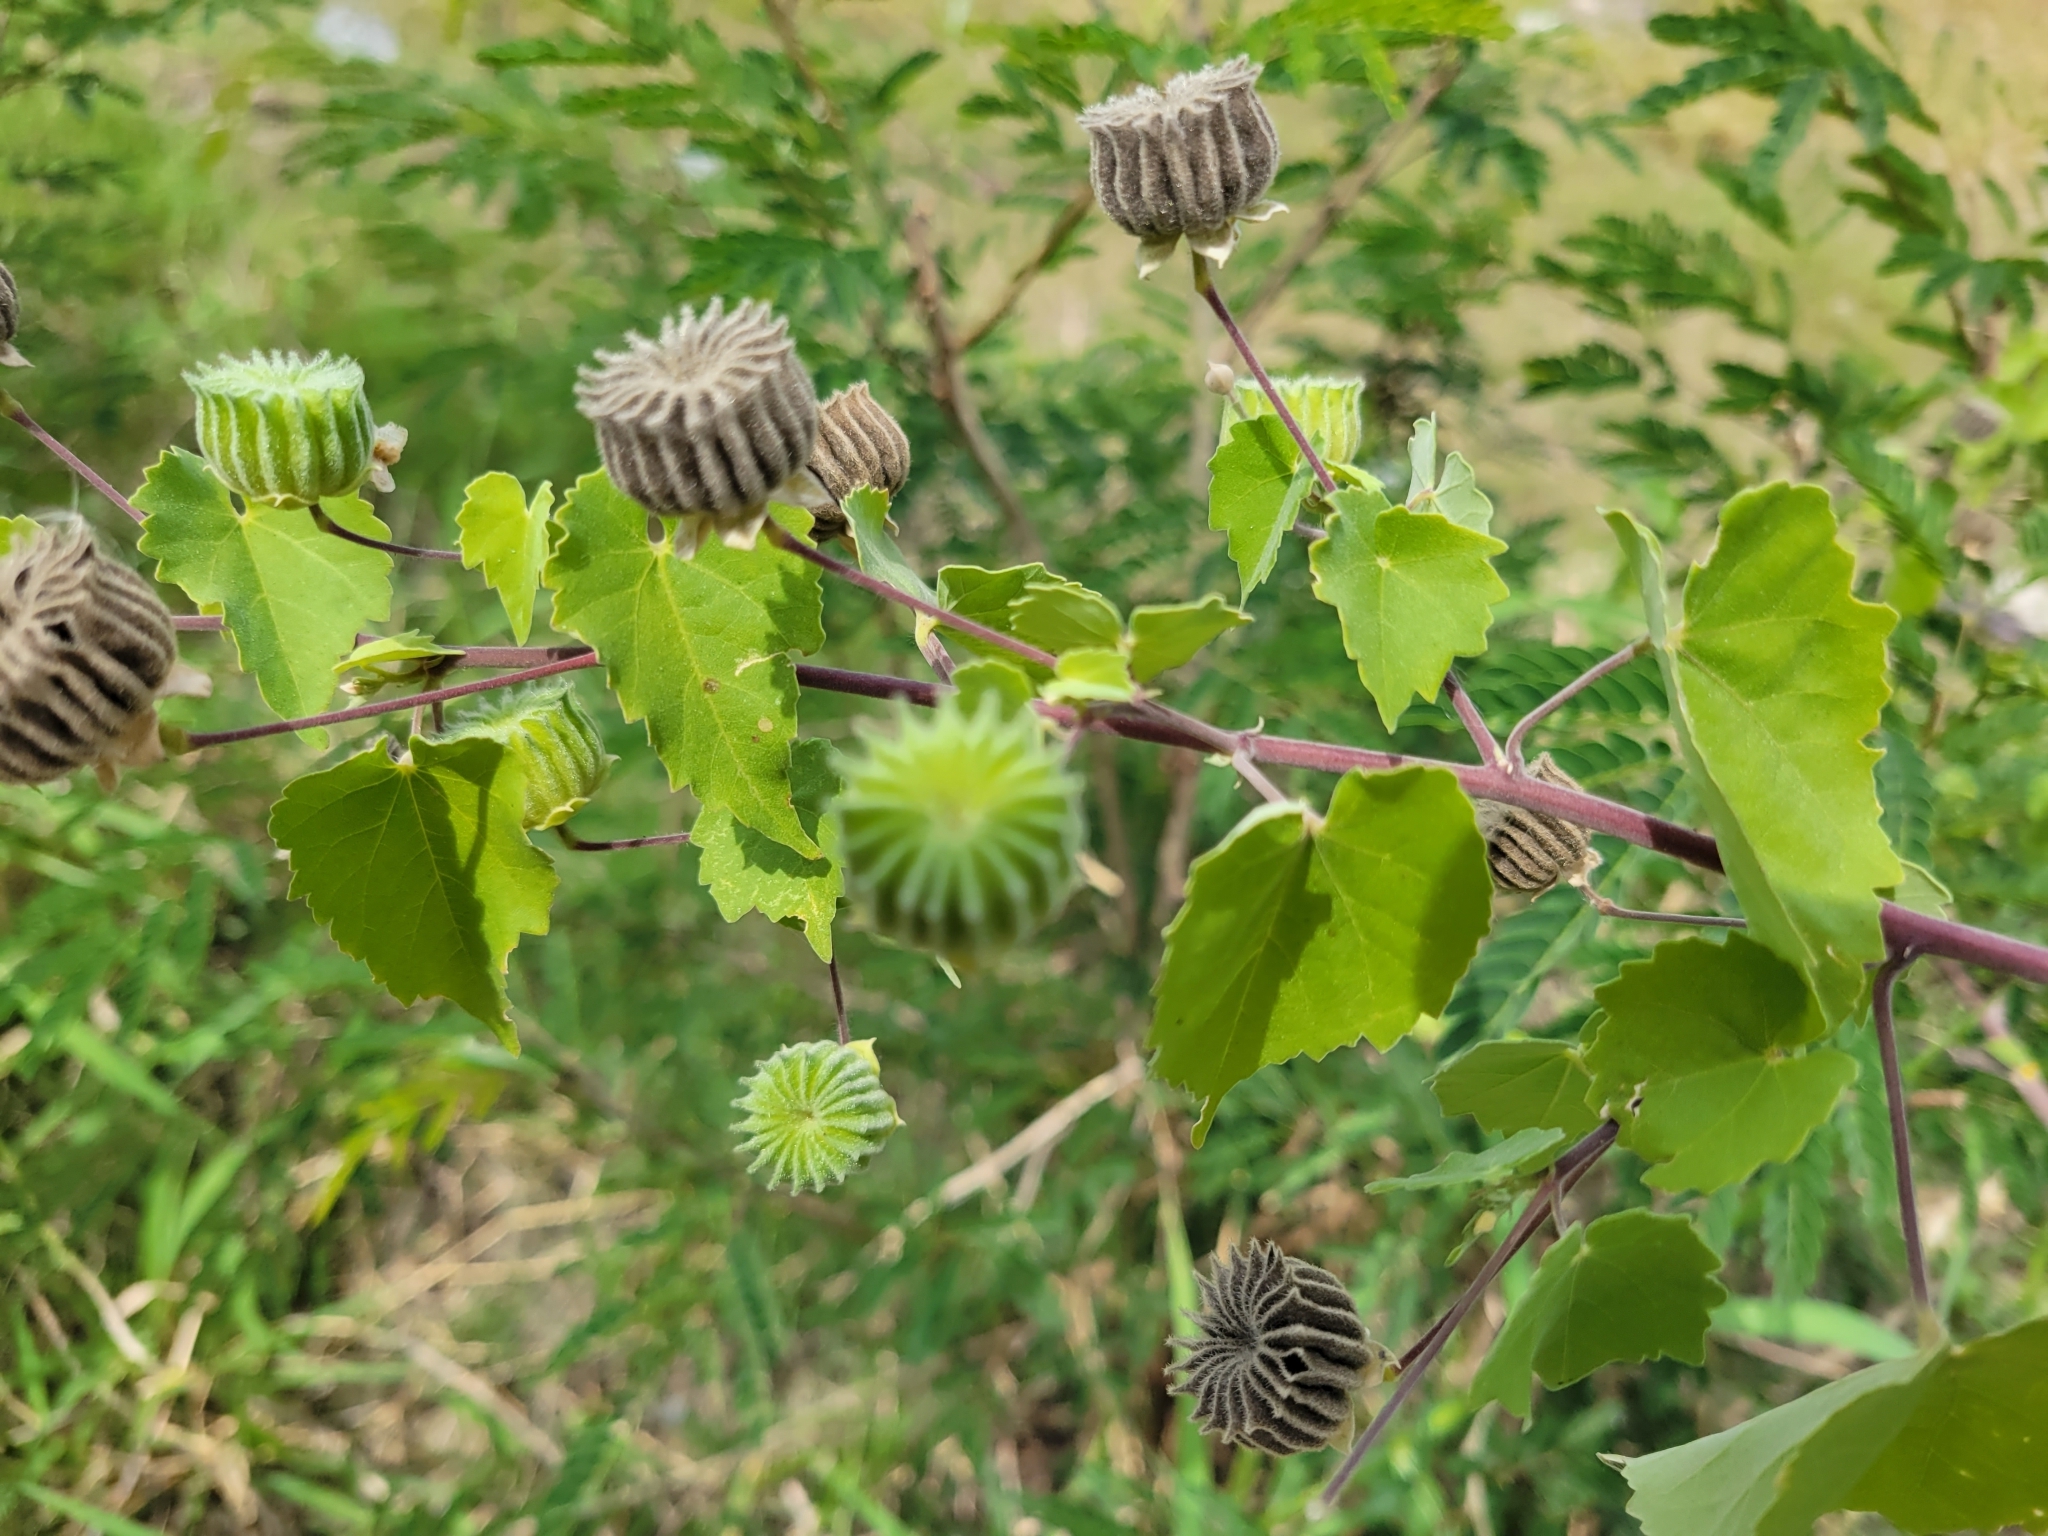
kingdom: Plantae
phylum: Tracheophyta
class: Magnoliopsida
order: Malvales
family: Malvaceae
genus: Abutilon
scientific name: Abutilon indicum
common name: Indian abutilon
